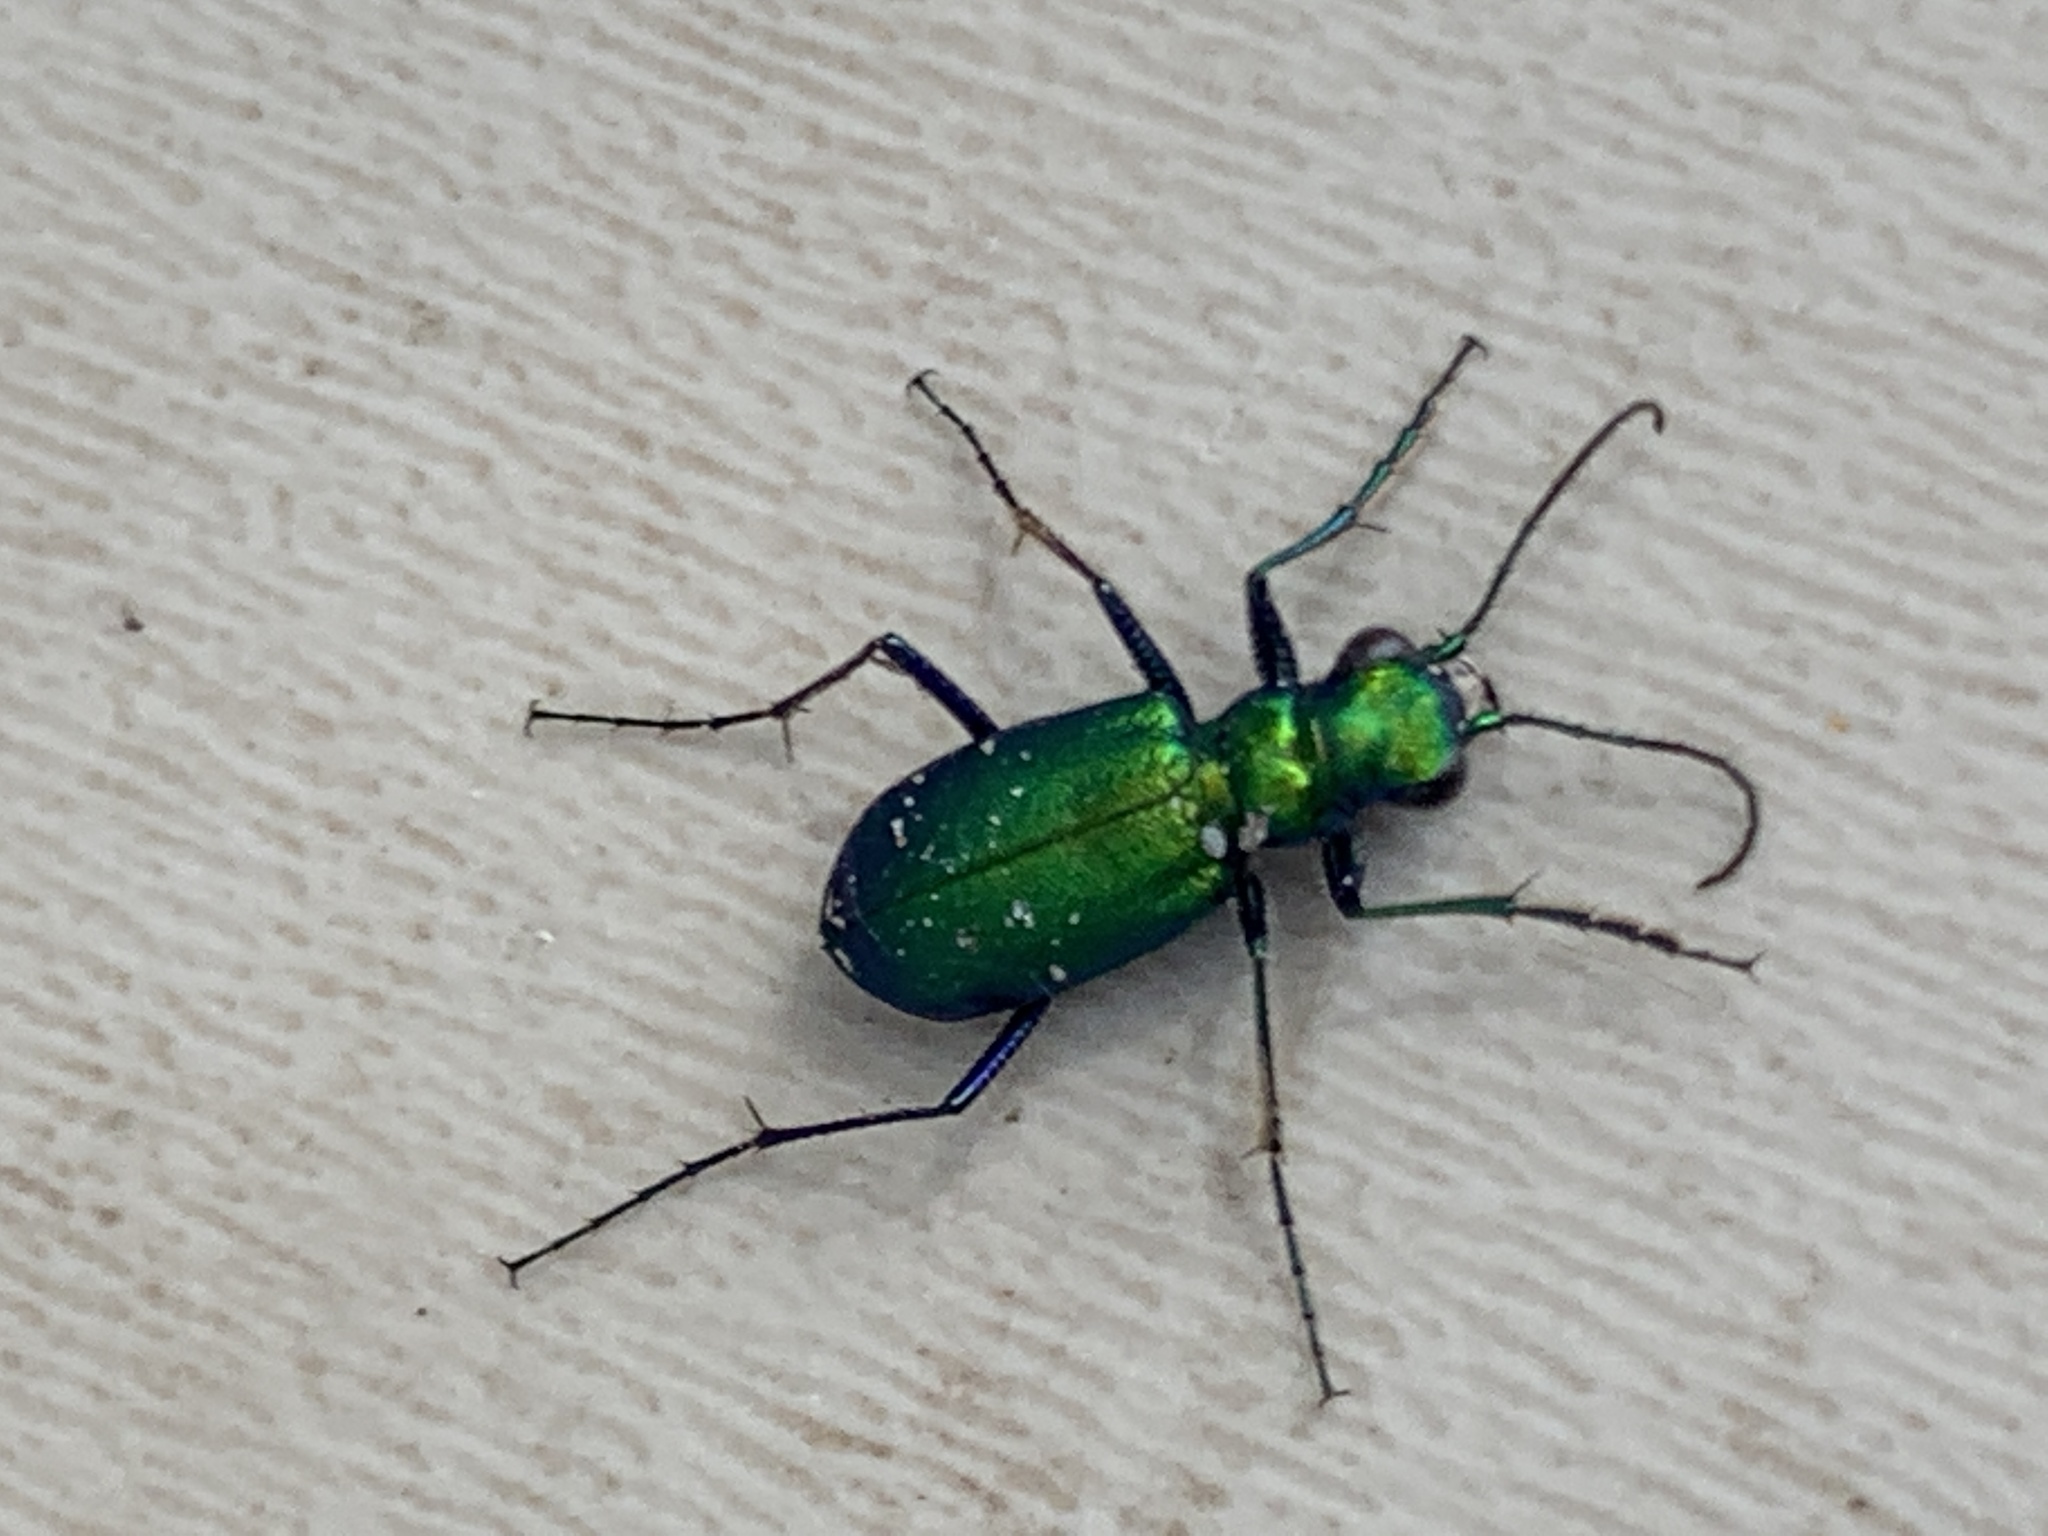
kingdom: Animalia
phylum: Arthropoda
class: Insecta
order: Coleoptera
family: Carabidae
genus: Cicindela
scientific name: Cicindela sexguttata
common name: Six-spotted tiger beetle
